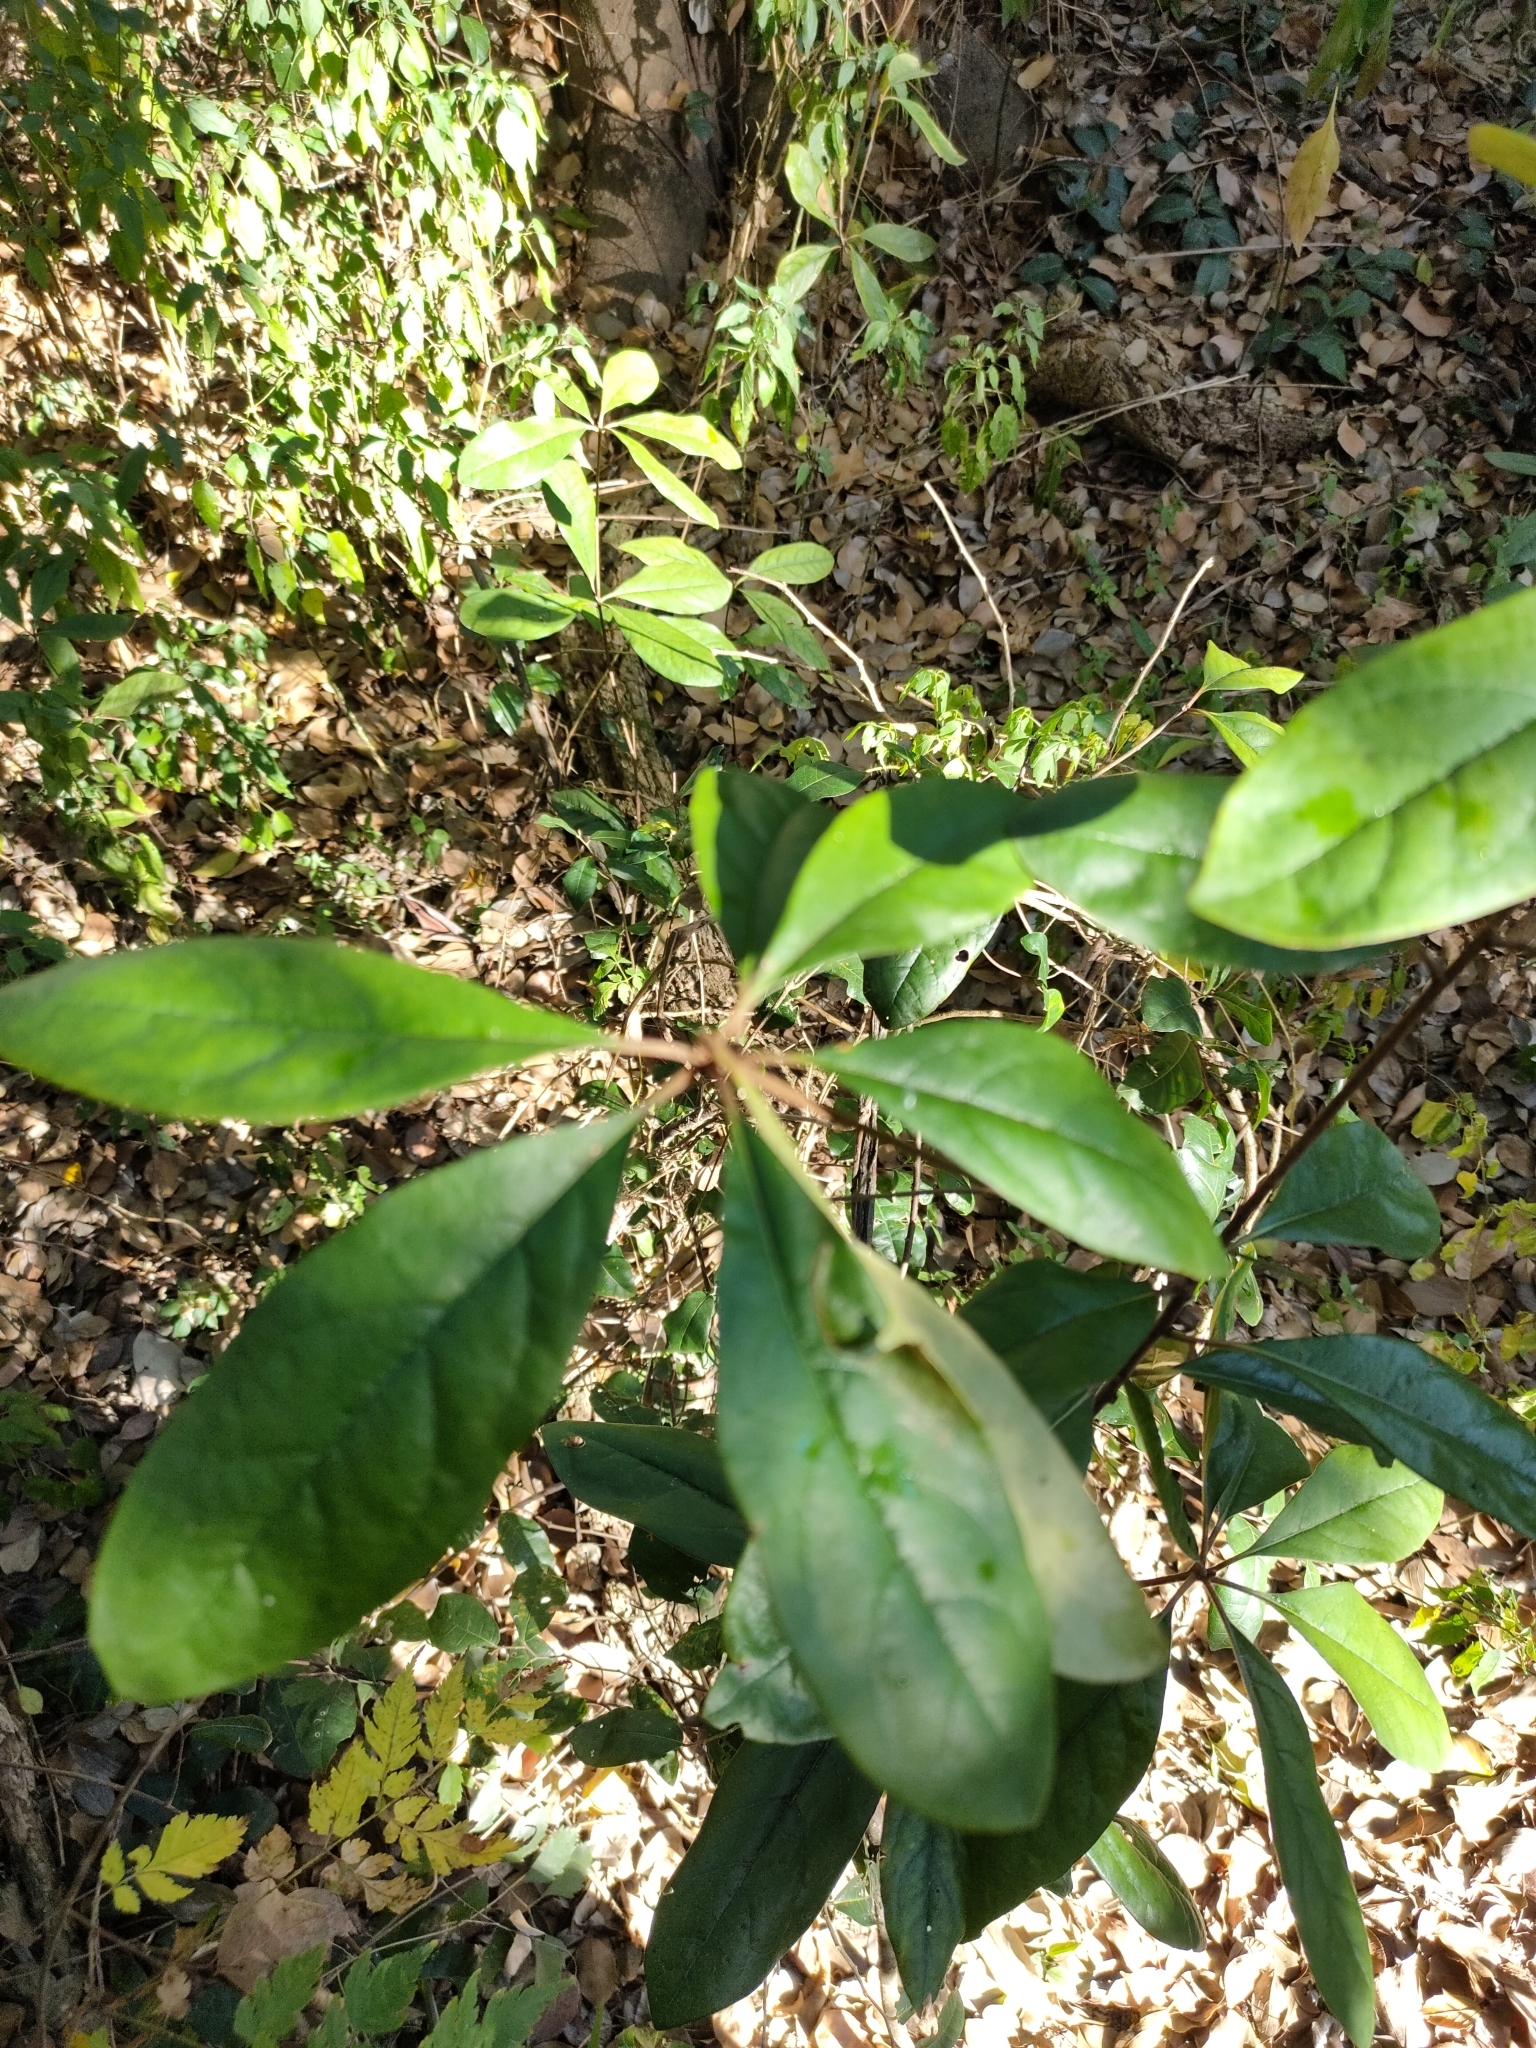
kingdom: Plantae
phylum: Tracheophyta
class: Magnoliopsida
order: Apiales
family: Pittosporaceae
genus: Pittosporum
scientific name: Pittosporum revolutum
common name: Brisbane-laurel
